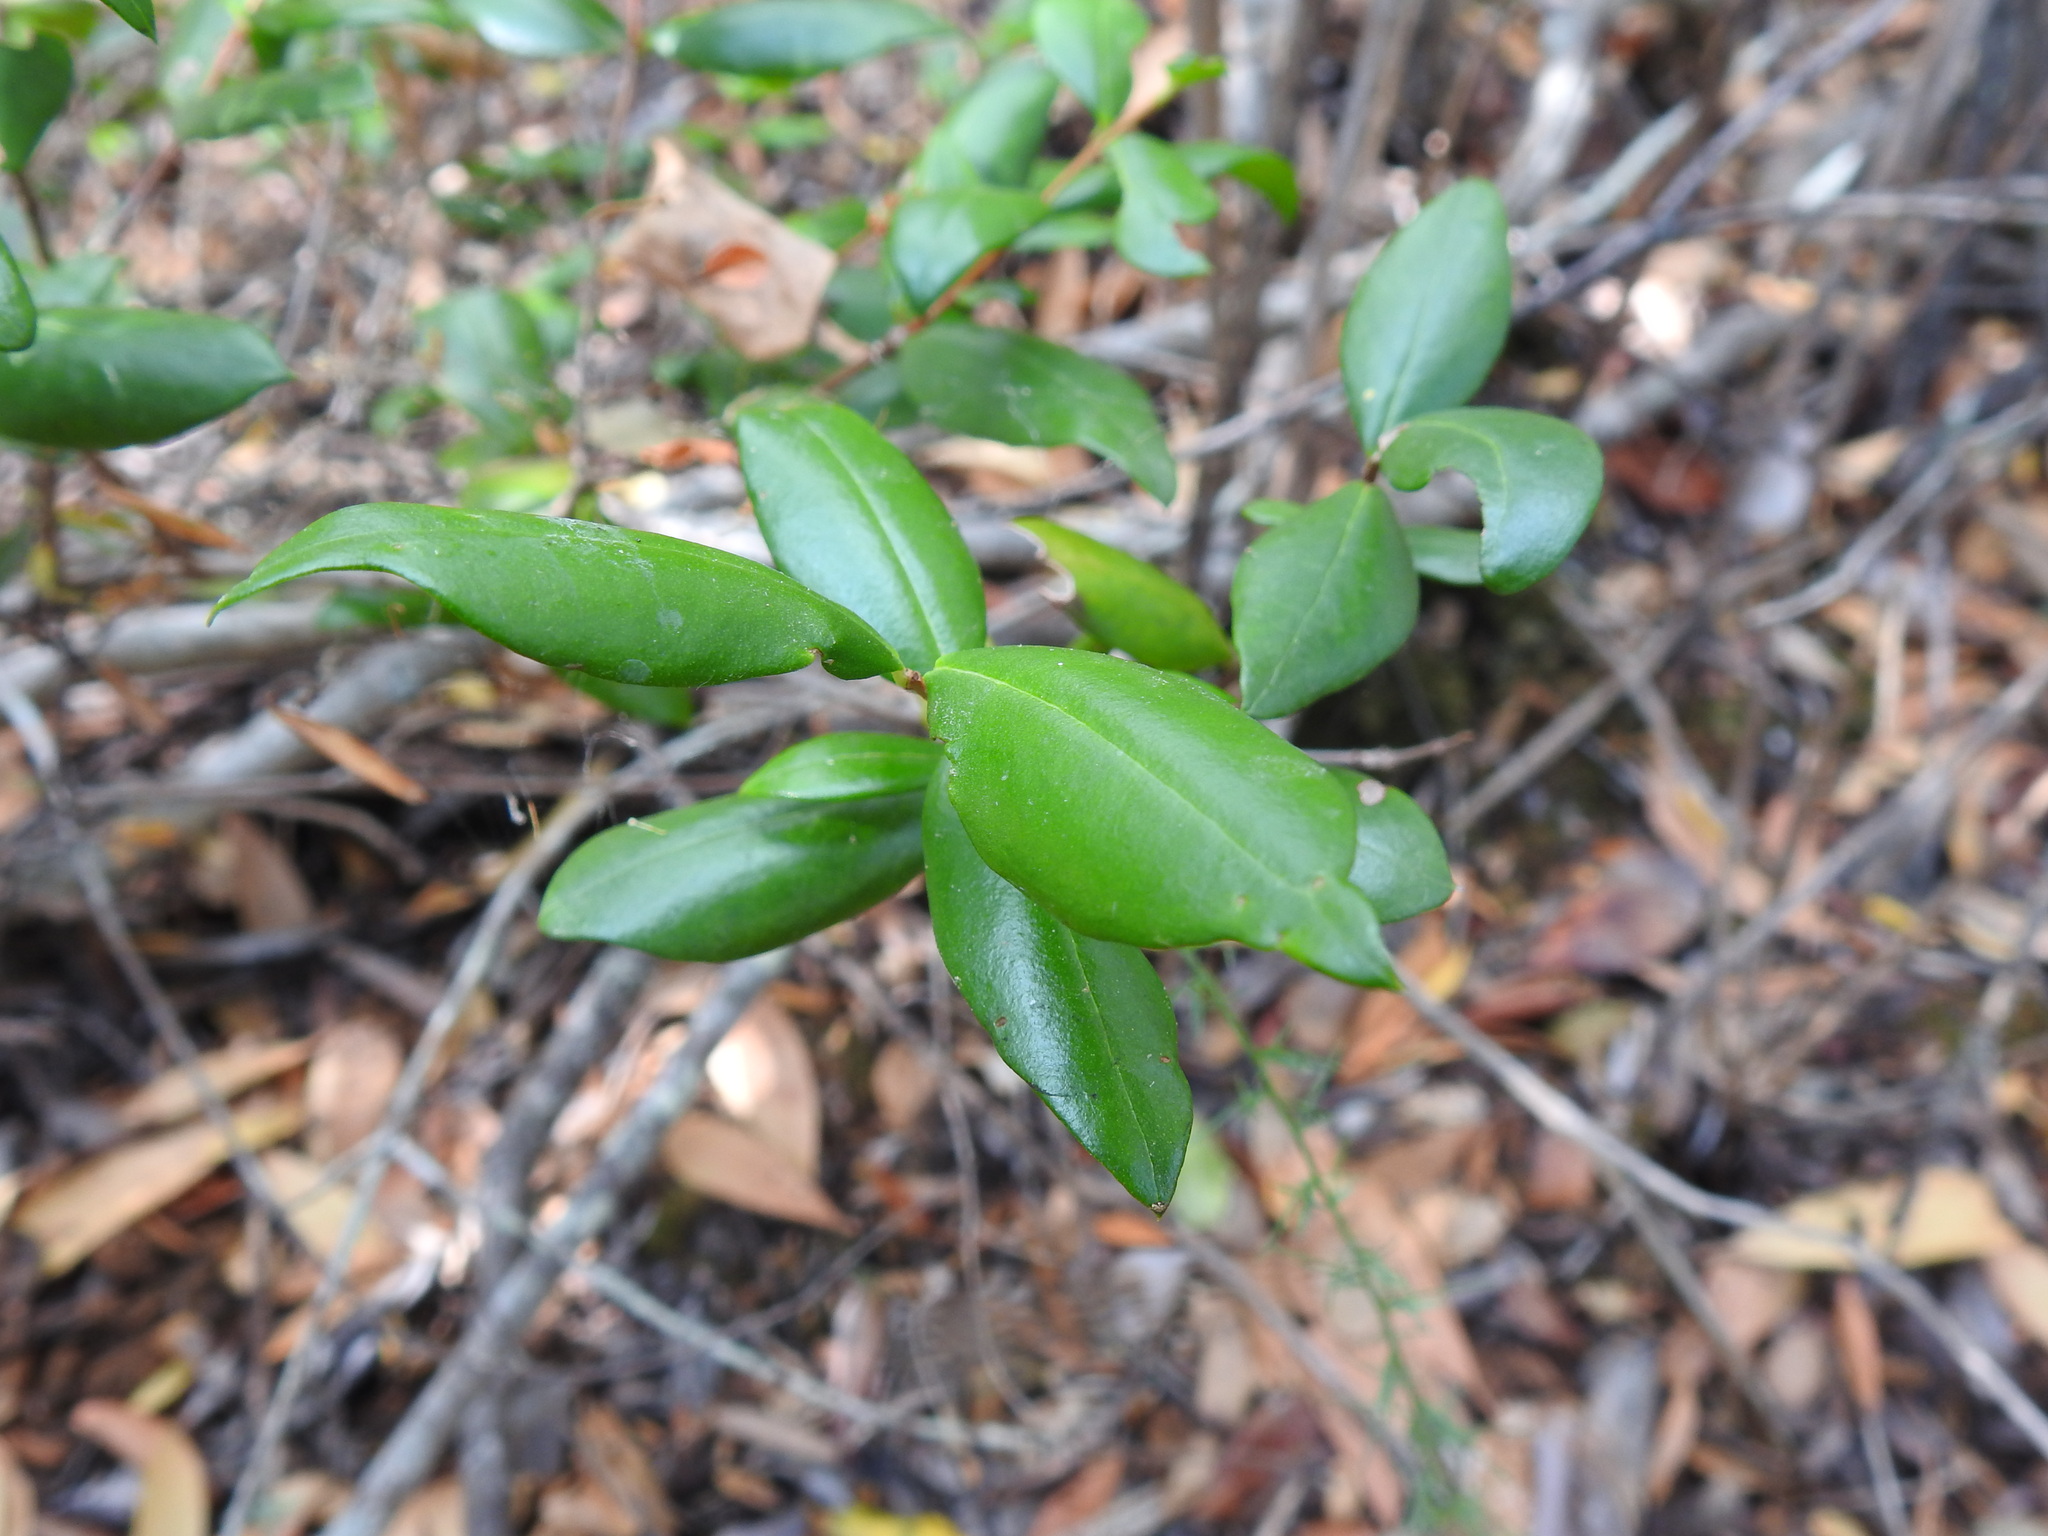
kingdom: Plantae
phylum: Tracheophyta
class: Magnoliopsida
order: Myrtales
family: Myrtaceae
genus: Myrtus
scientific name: Myrtus communis
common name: Myrtle
